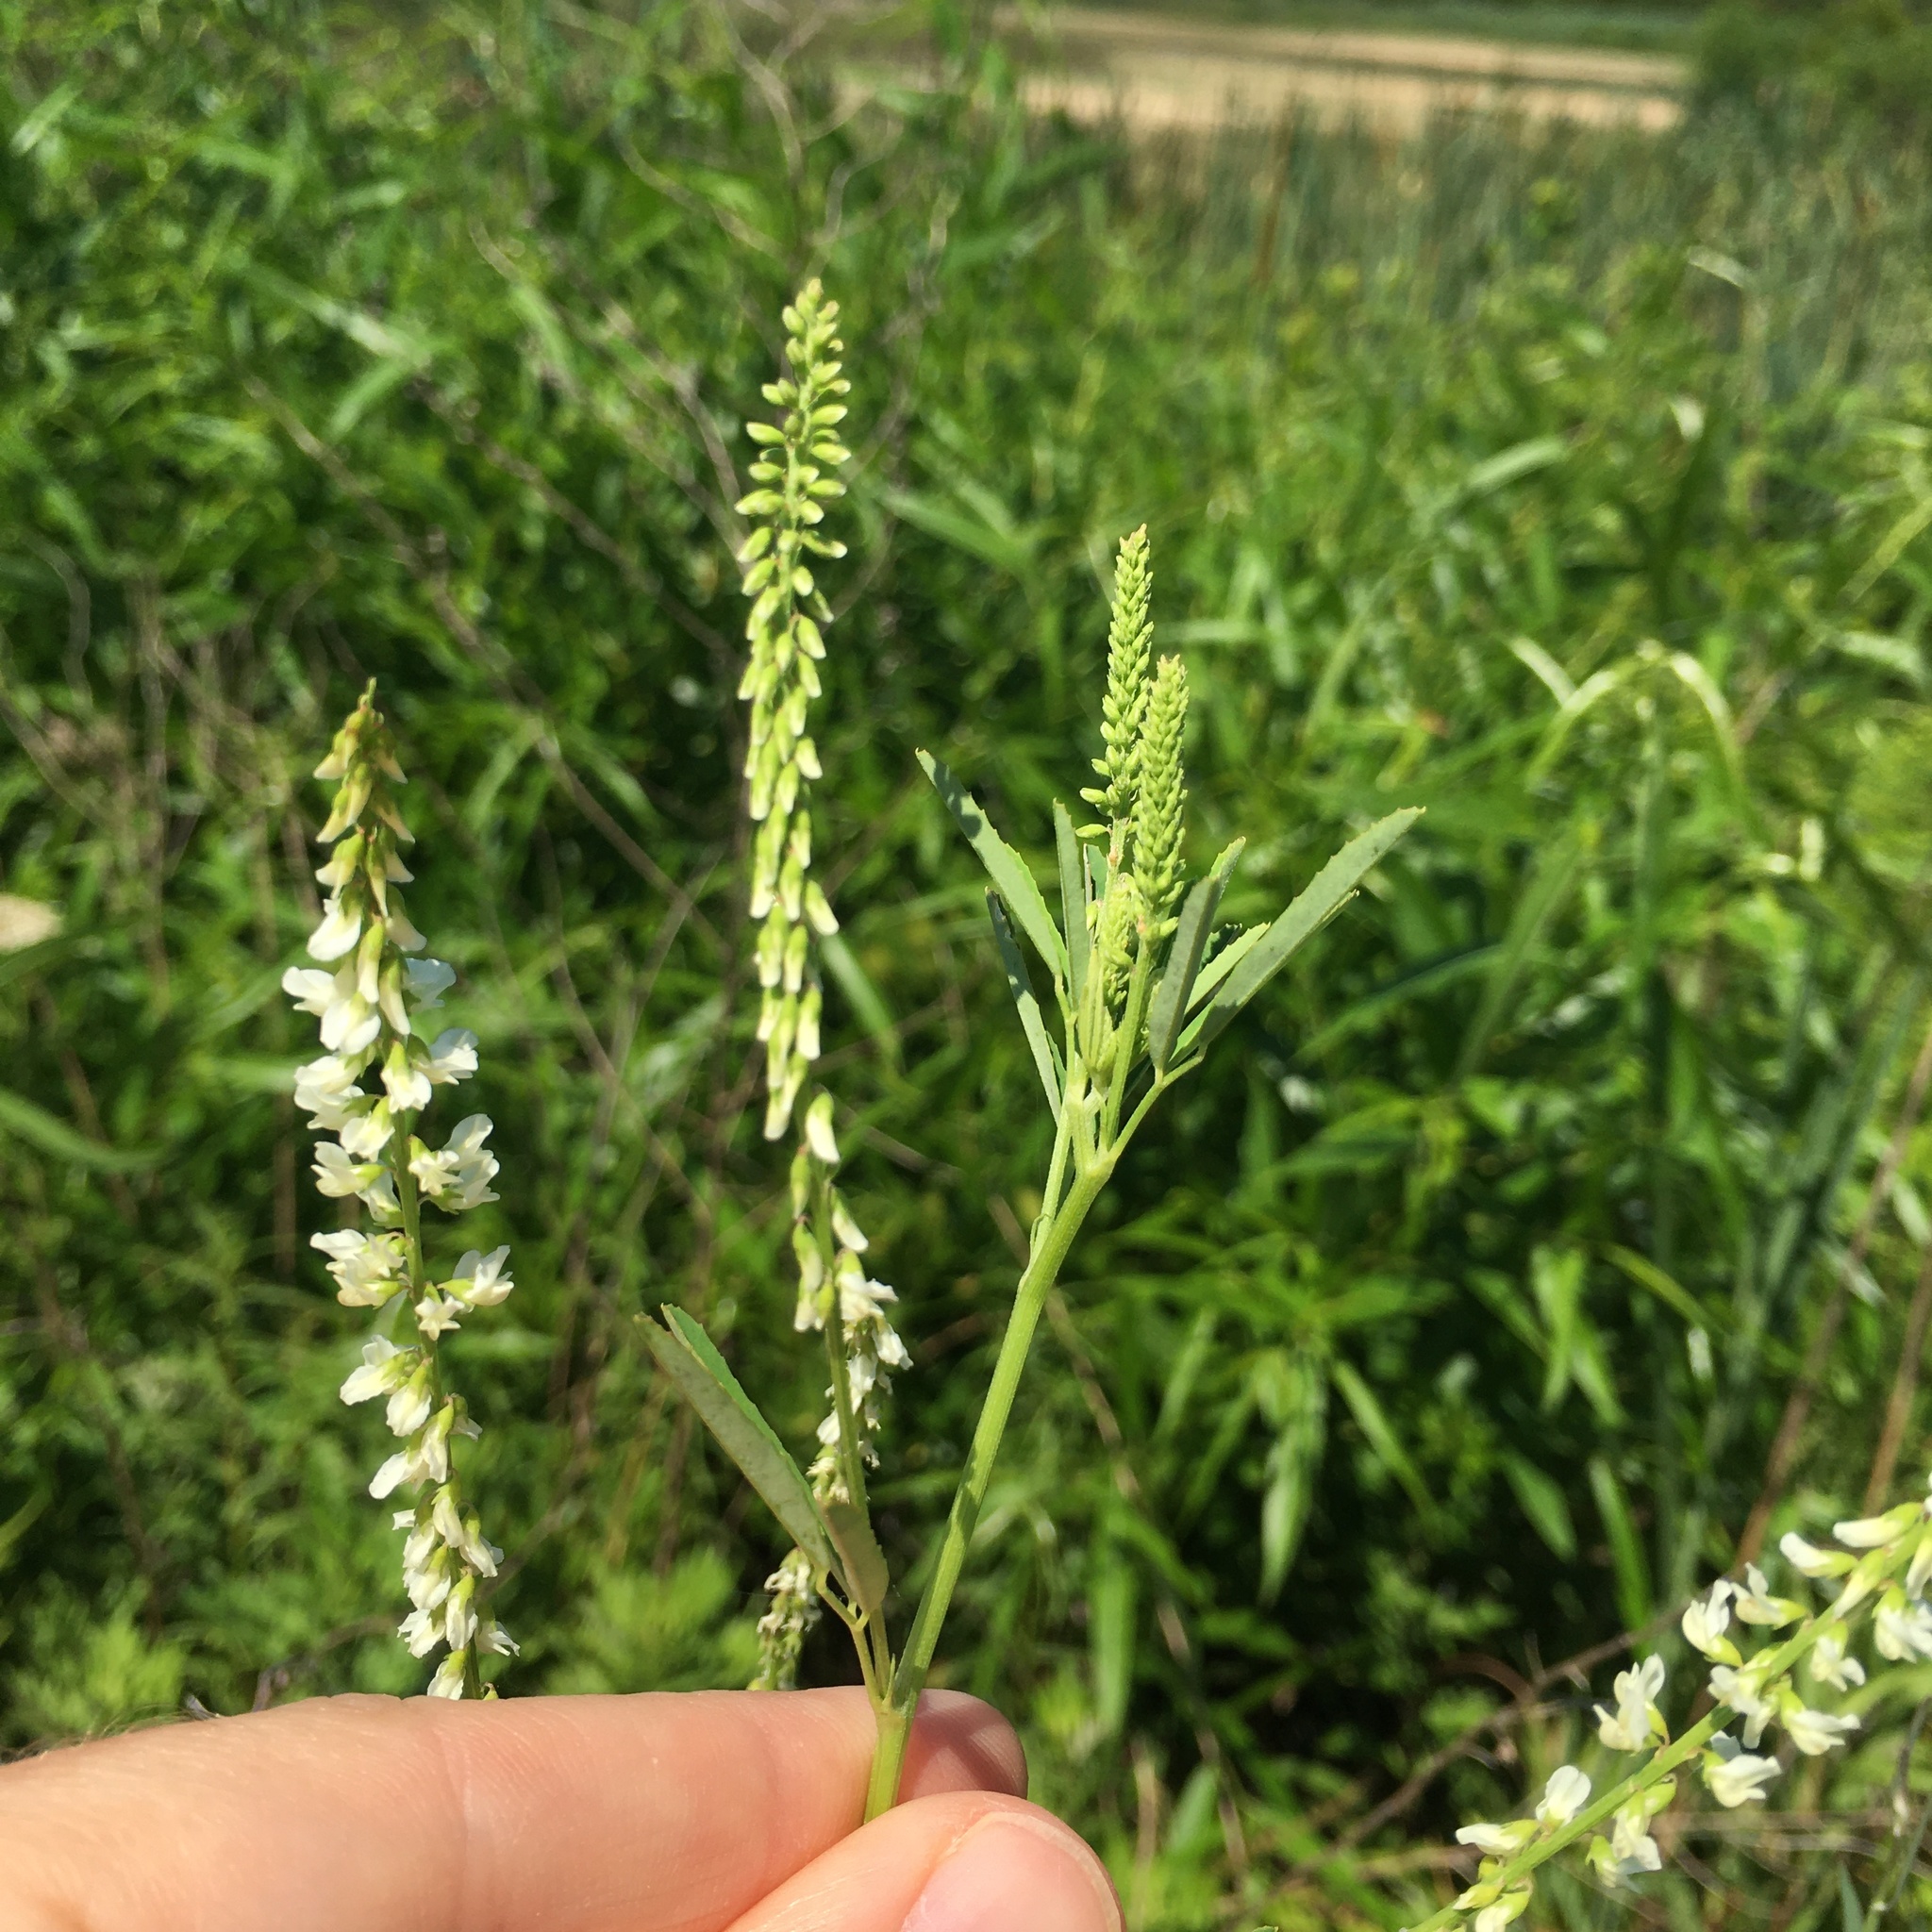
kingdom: Plantae
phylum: Tracheophyta
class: Magnoliopsida
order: Fabales
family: Fabaceae
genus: Melilotus
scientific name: Melilotus albus
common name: White melilot
